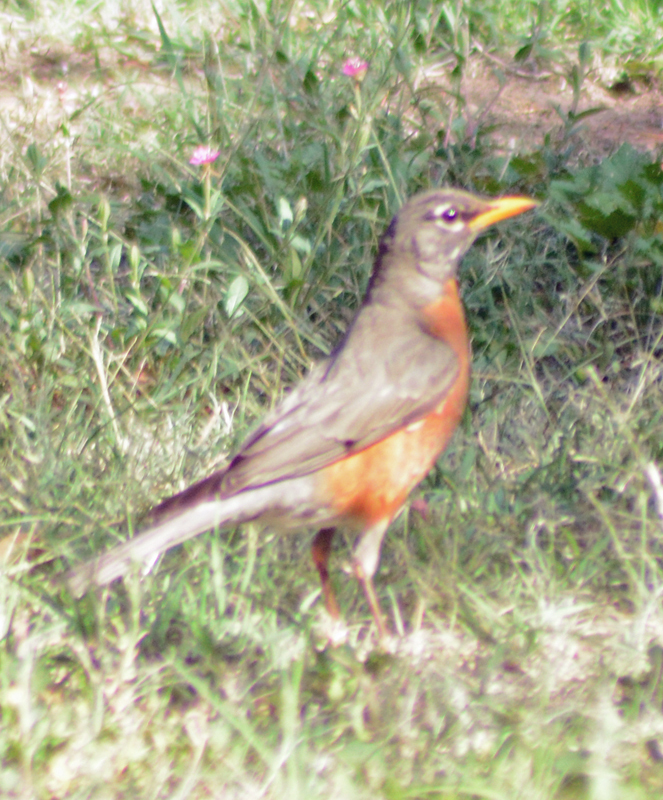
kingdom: Animalia
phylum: Chordata
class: Aves
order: Passeriformes
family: Turdidae
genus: Turdus
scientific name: Turdus migratorius
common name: American robin
